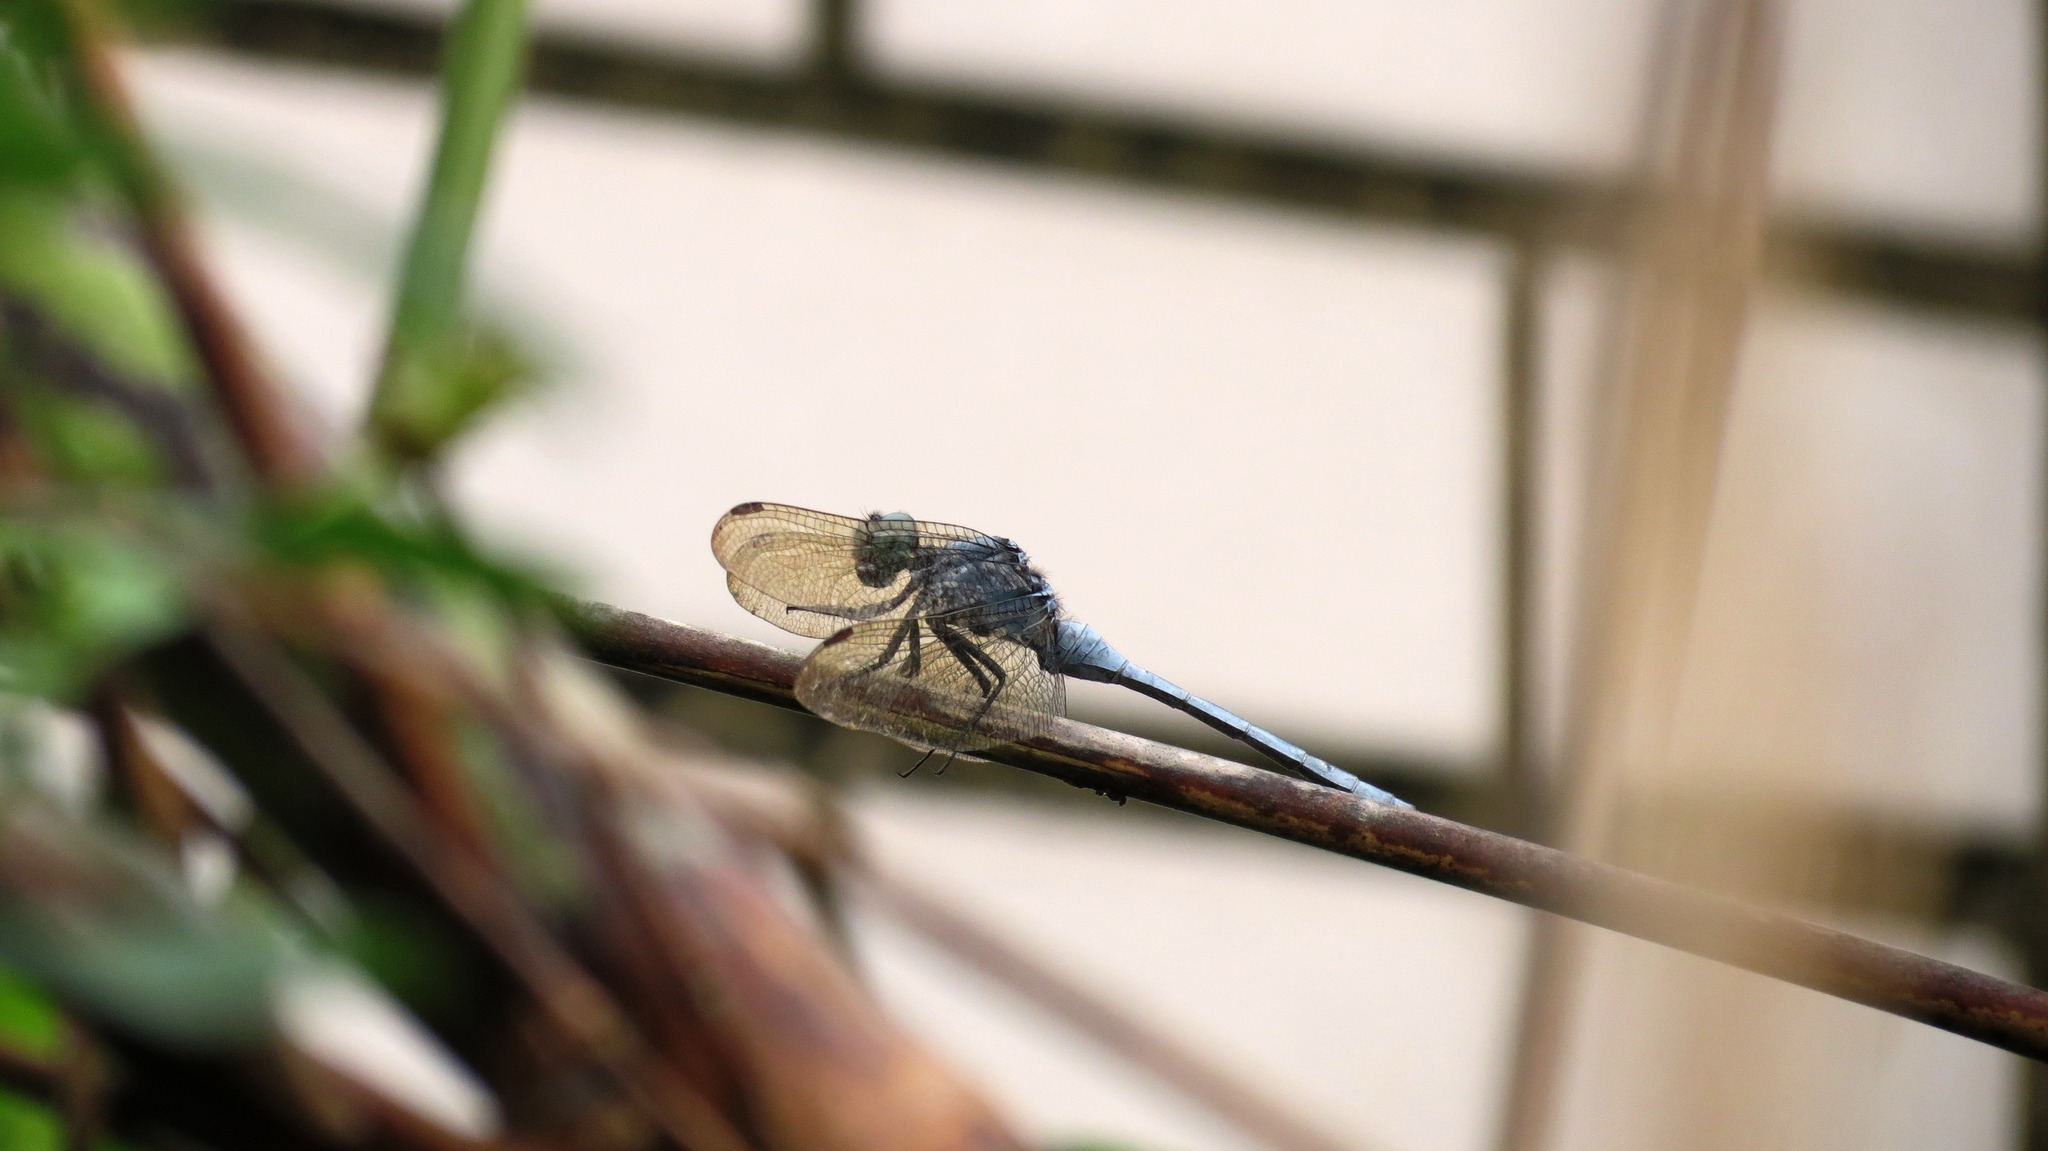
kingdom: Animalia
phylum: Arthropoda
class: Insecta
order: Odonata
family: Libellulidae
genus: Orthetrum
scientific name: Orthetrum luzonicum
